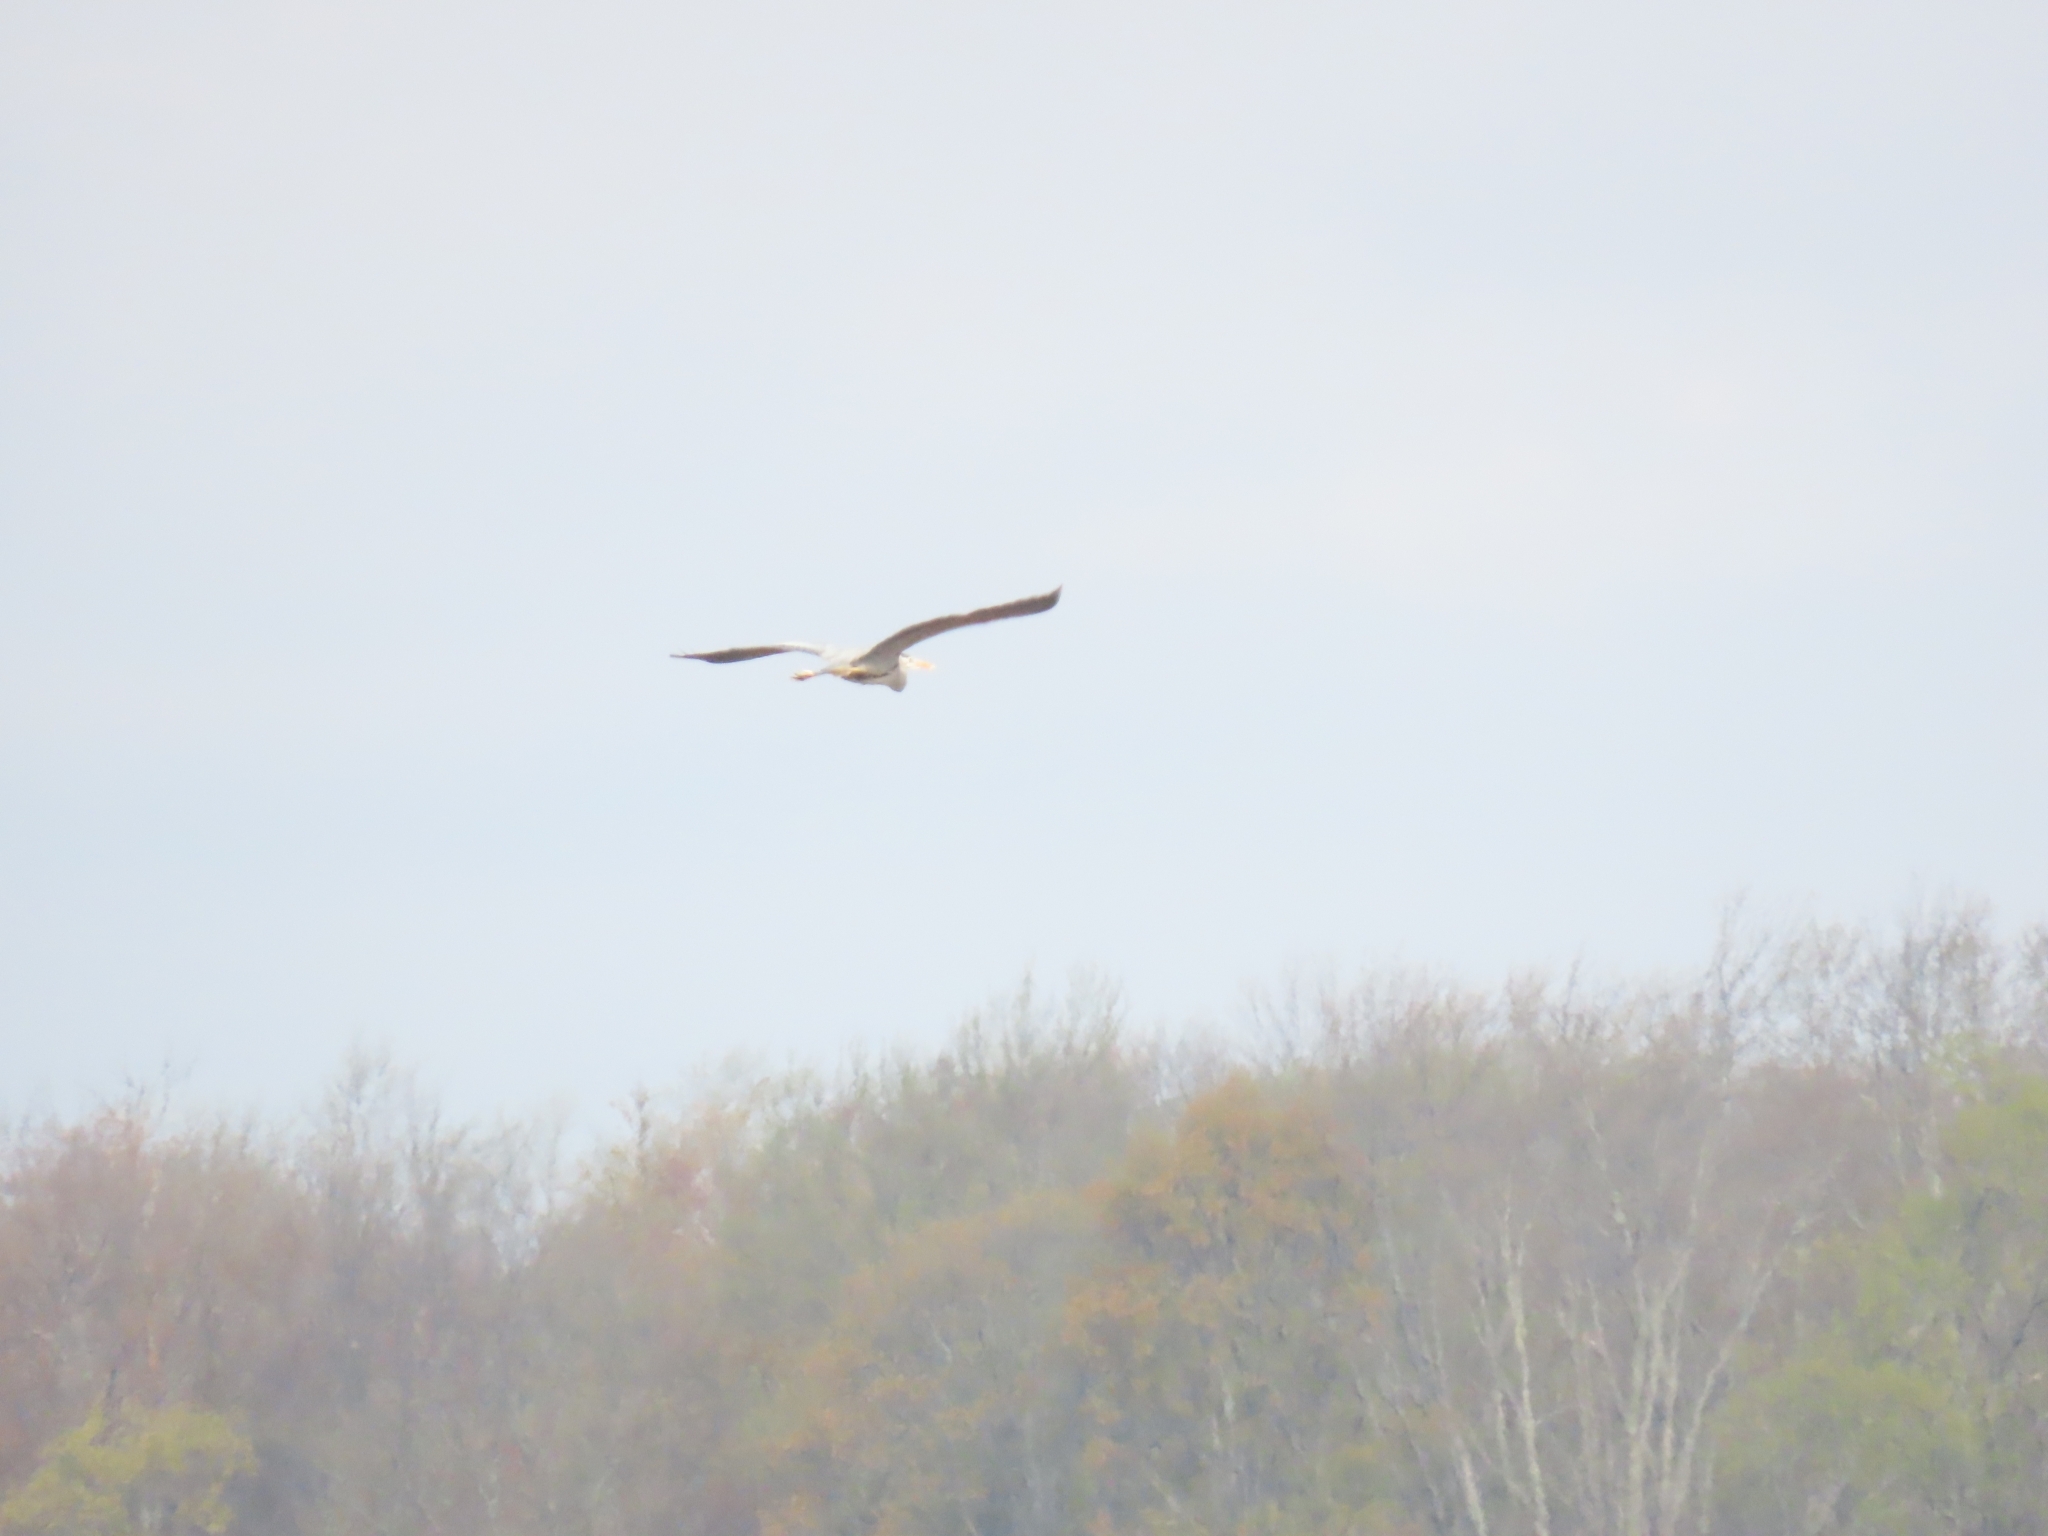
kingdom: Animalia
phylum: Chordata
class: Aves
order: Pelecaniformes
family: Ardeidae
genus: Ardea
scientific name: Ardea herodias
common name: Great blue heron
